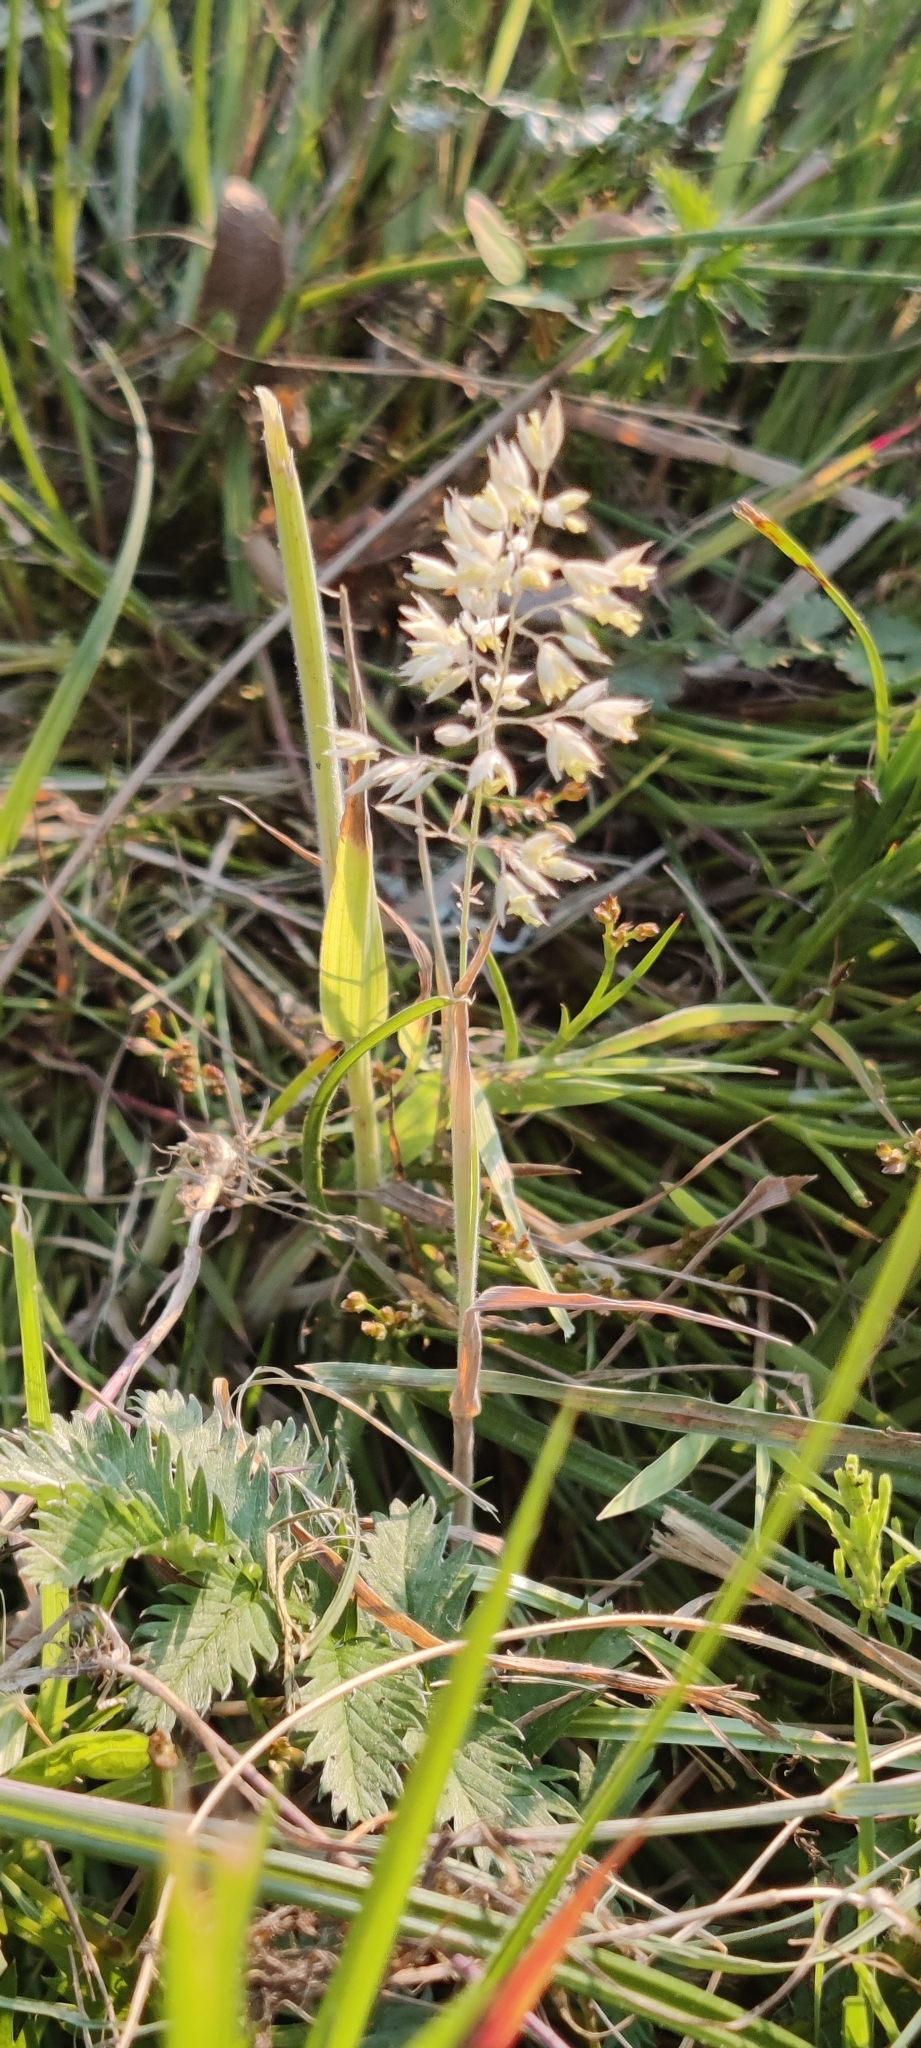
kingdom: Plantae
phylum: Tracheophyta
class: Liliopsida
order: Poales
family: Poaceae
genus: Holcus
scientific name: Holcus lanatus
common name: Yorkshire-fog
